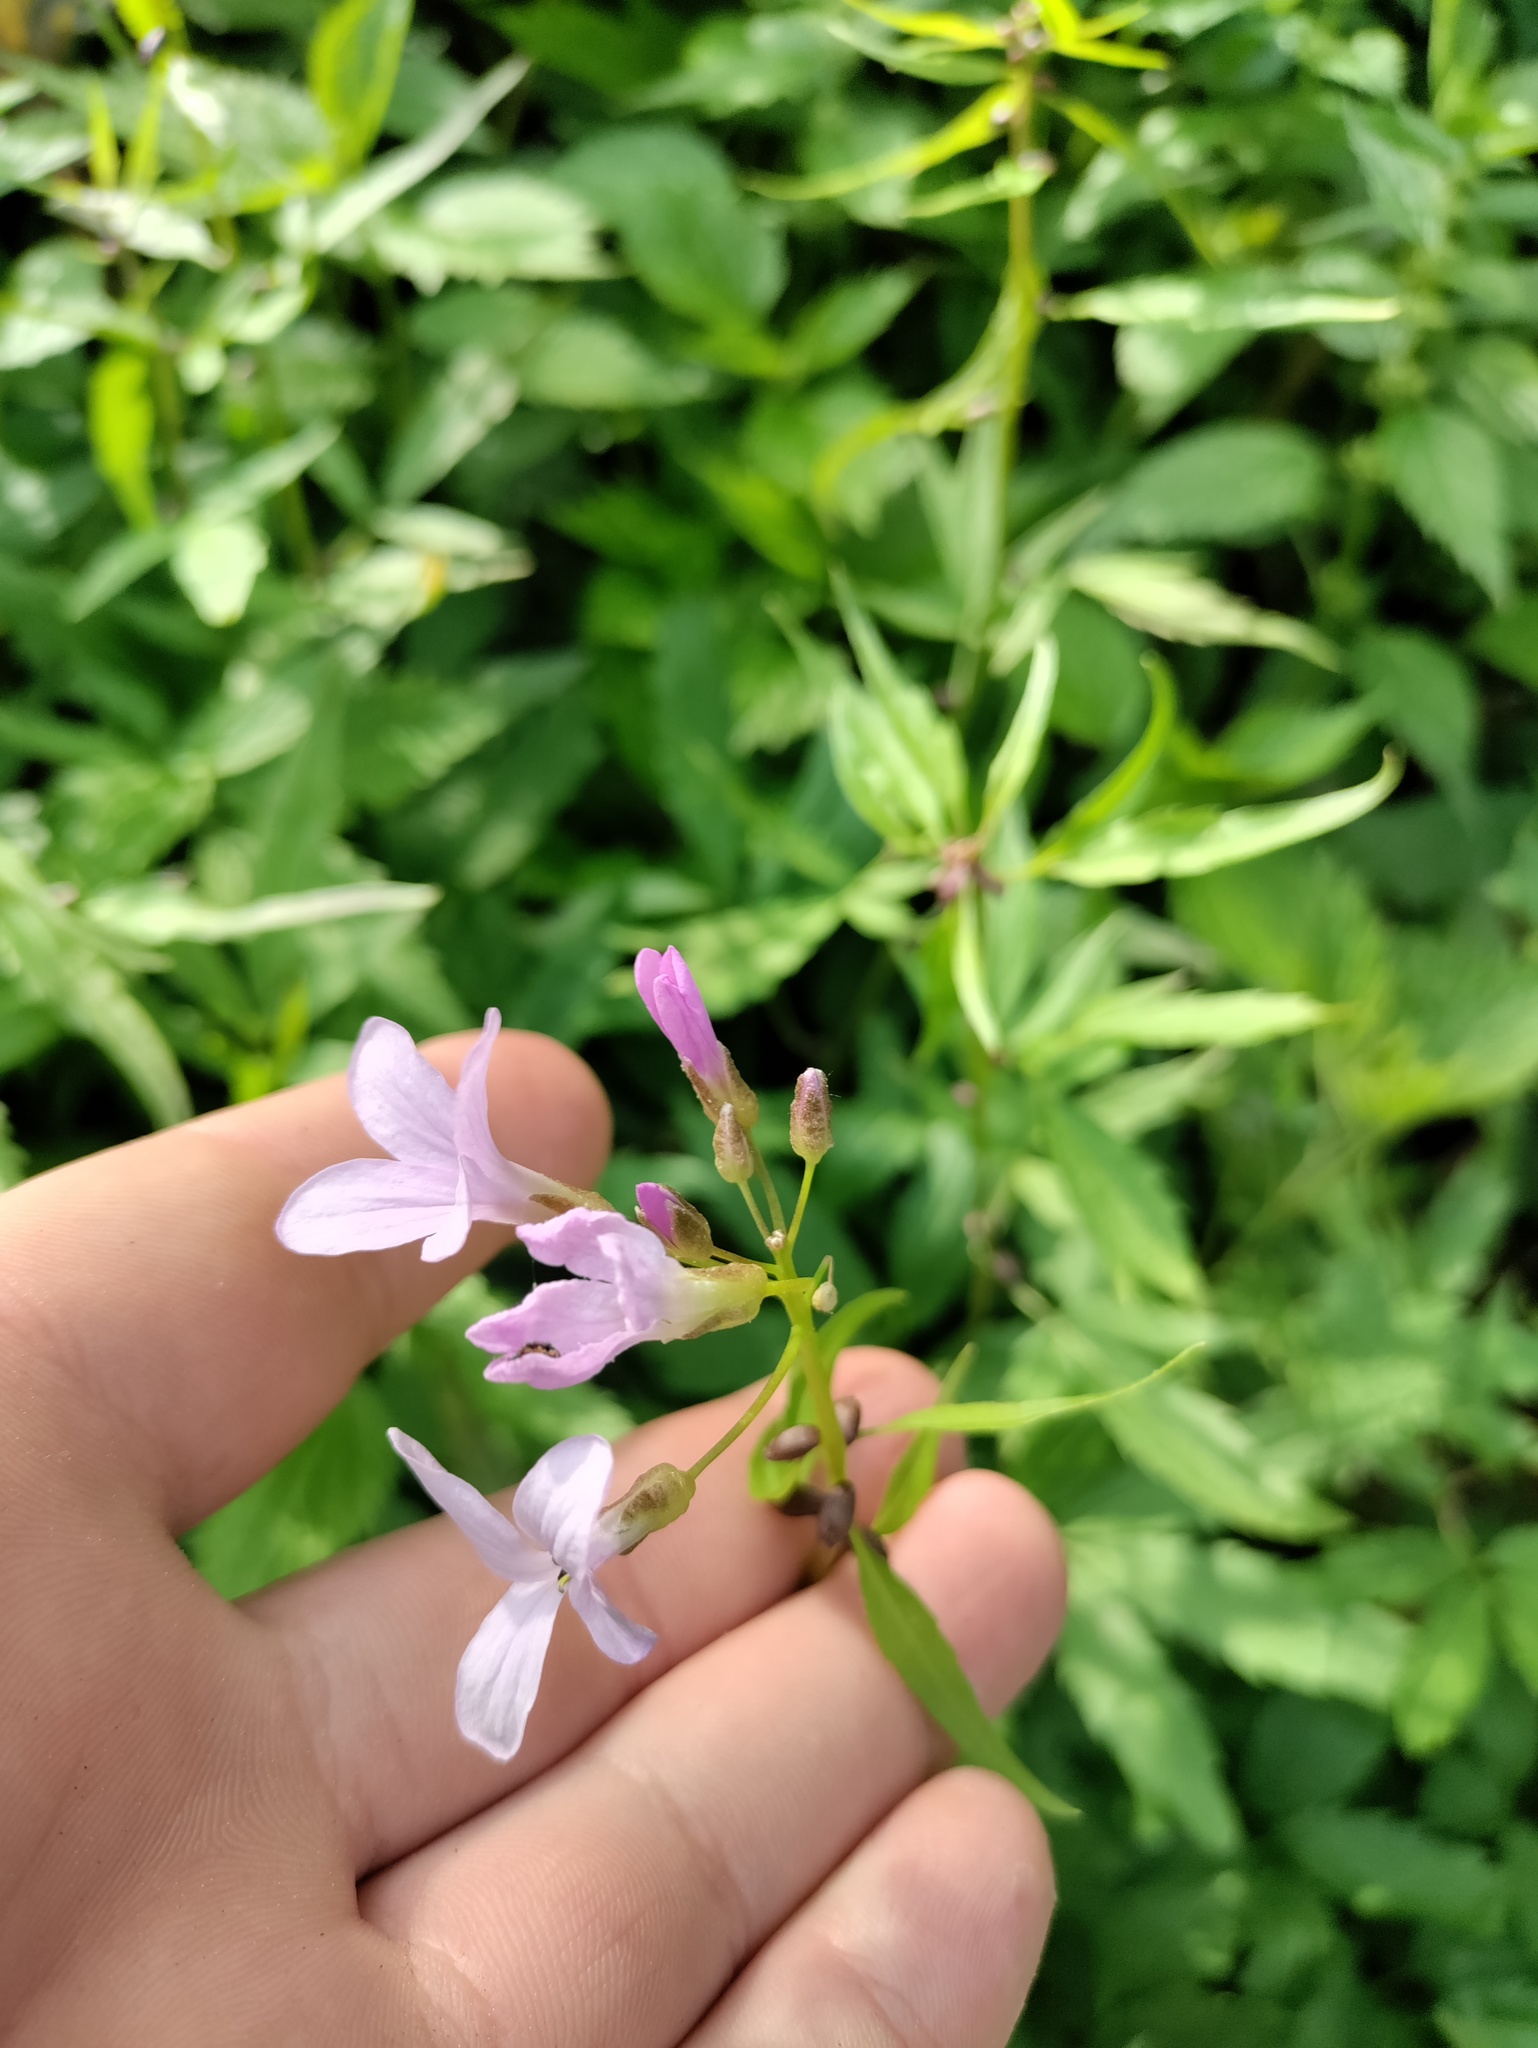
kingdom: Plantae
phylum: Tracheophyta
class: Magnoliopsida
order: Brassicales
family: Brassicaceae
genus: Cardamine
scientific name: Cardamine bulbifera
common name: Coralroot bittercress
